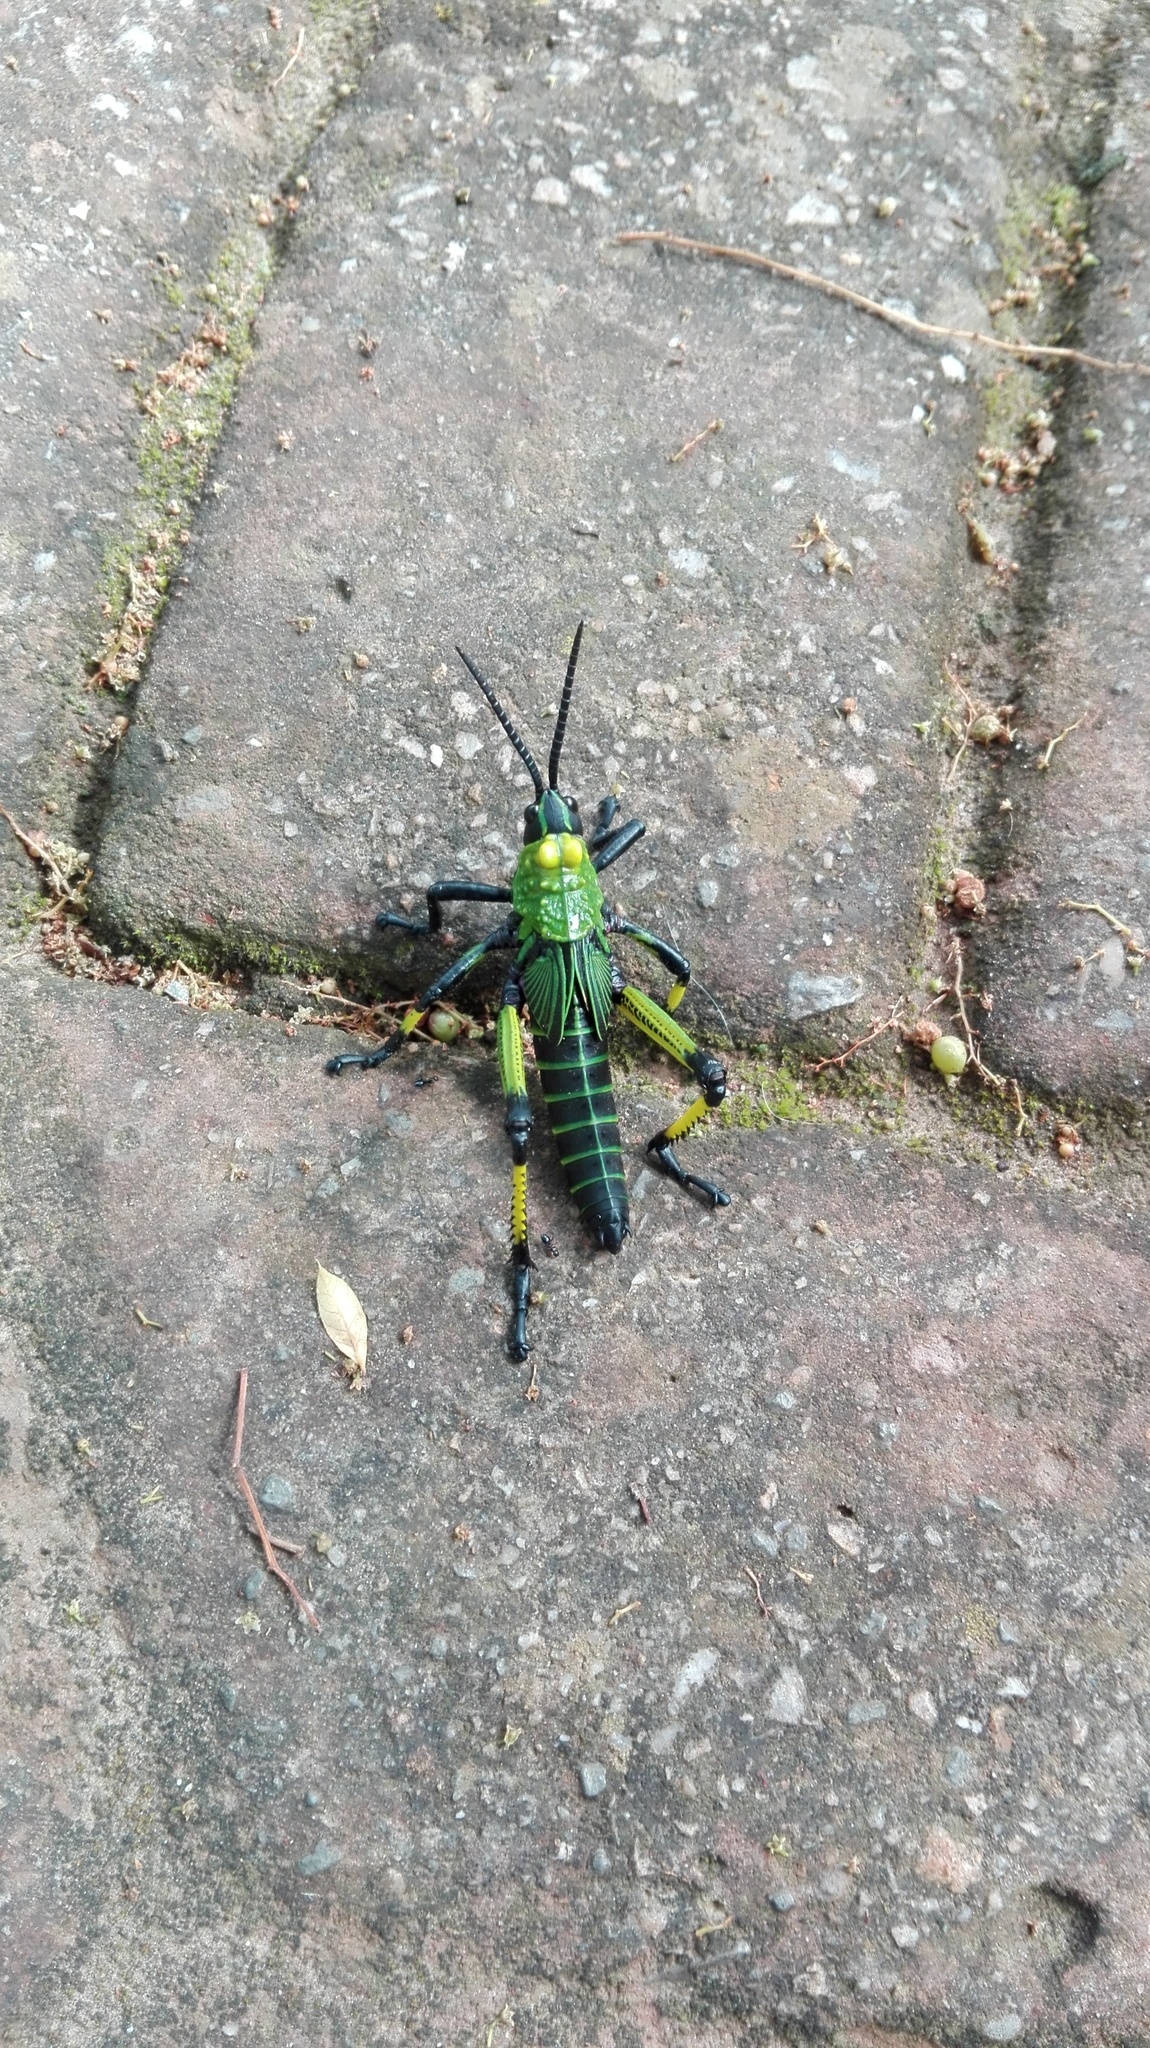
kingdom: Animalia
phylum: Arthropoda
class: Insecta
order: Orthoptera
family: Pyrgomorphidae
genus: Phymateus
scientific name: Phymateus leprosus
